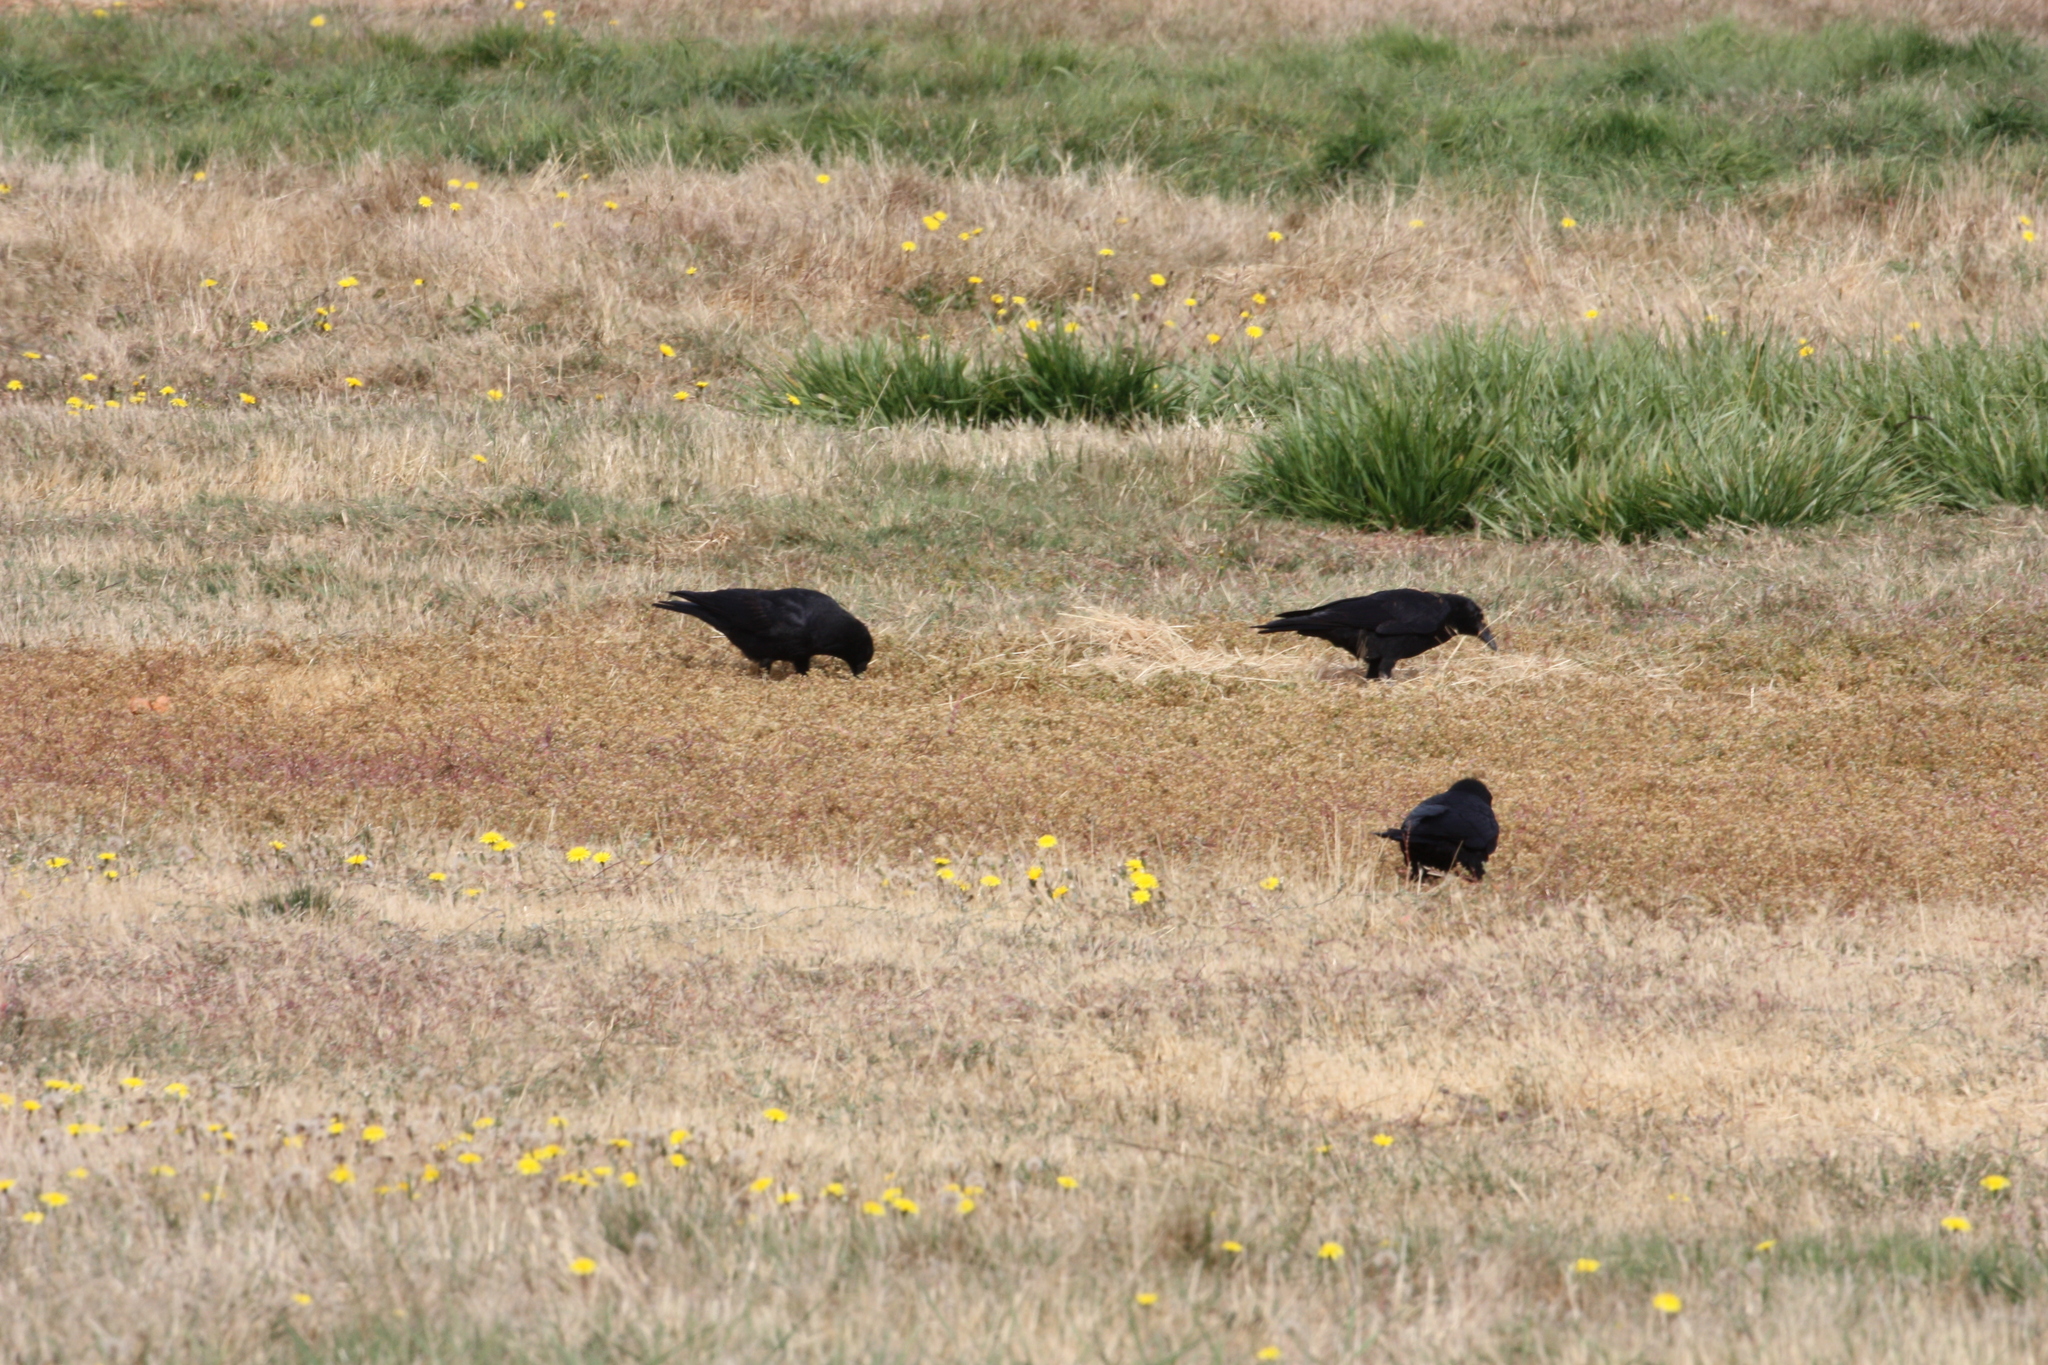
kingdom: Animalia
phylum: Chordata
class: Aves
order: Passeriformes
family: Corvidae
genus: Corvus
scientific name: Corvus brachyrhynchos
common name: American crow
